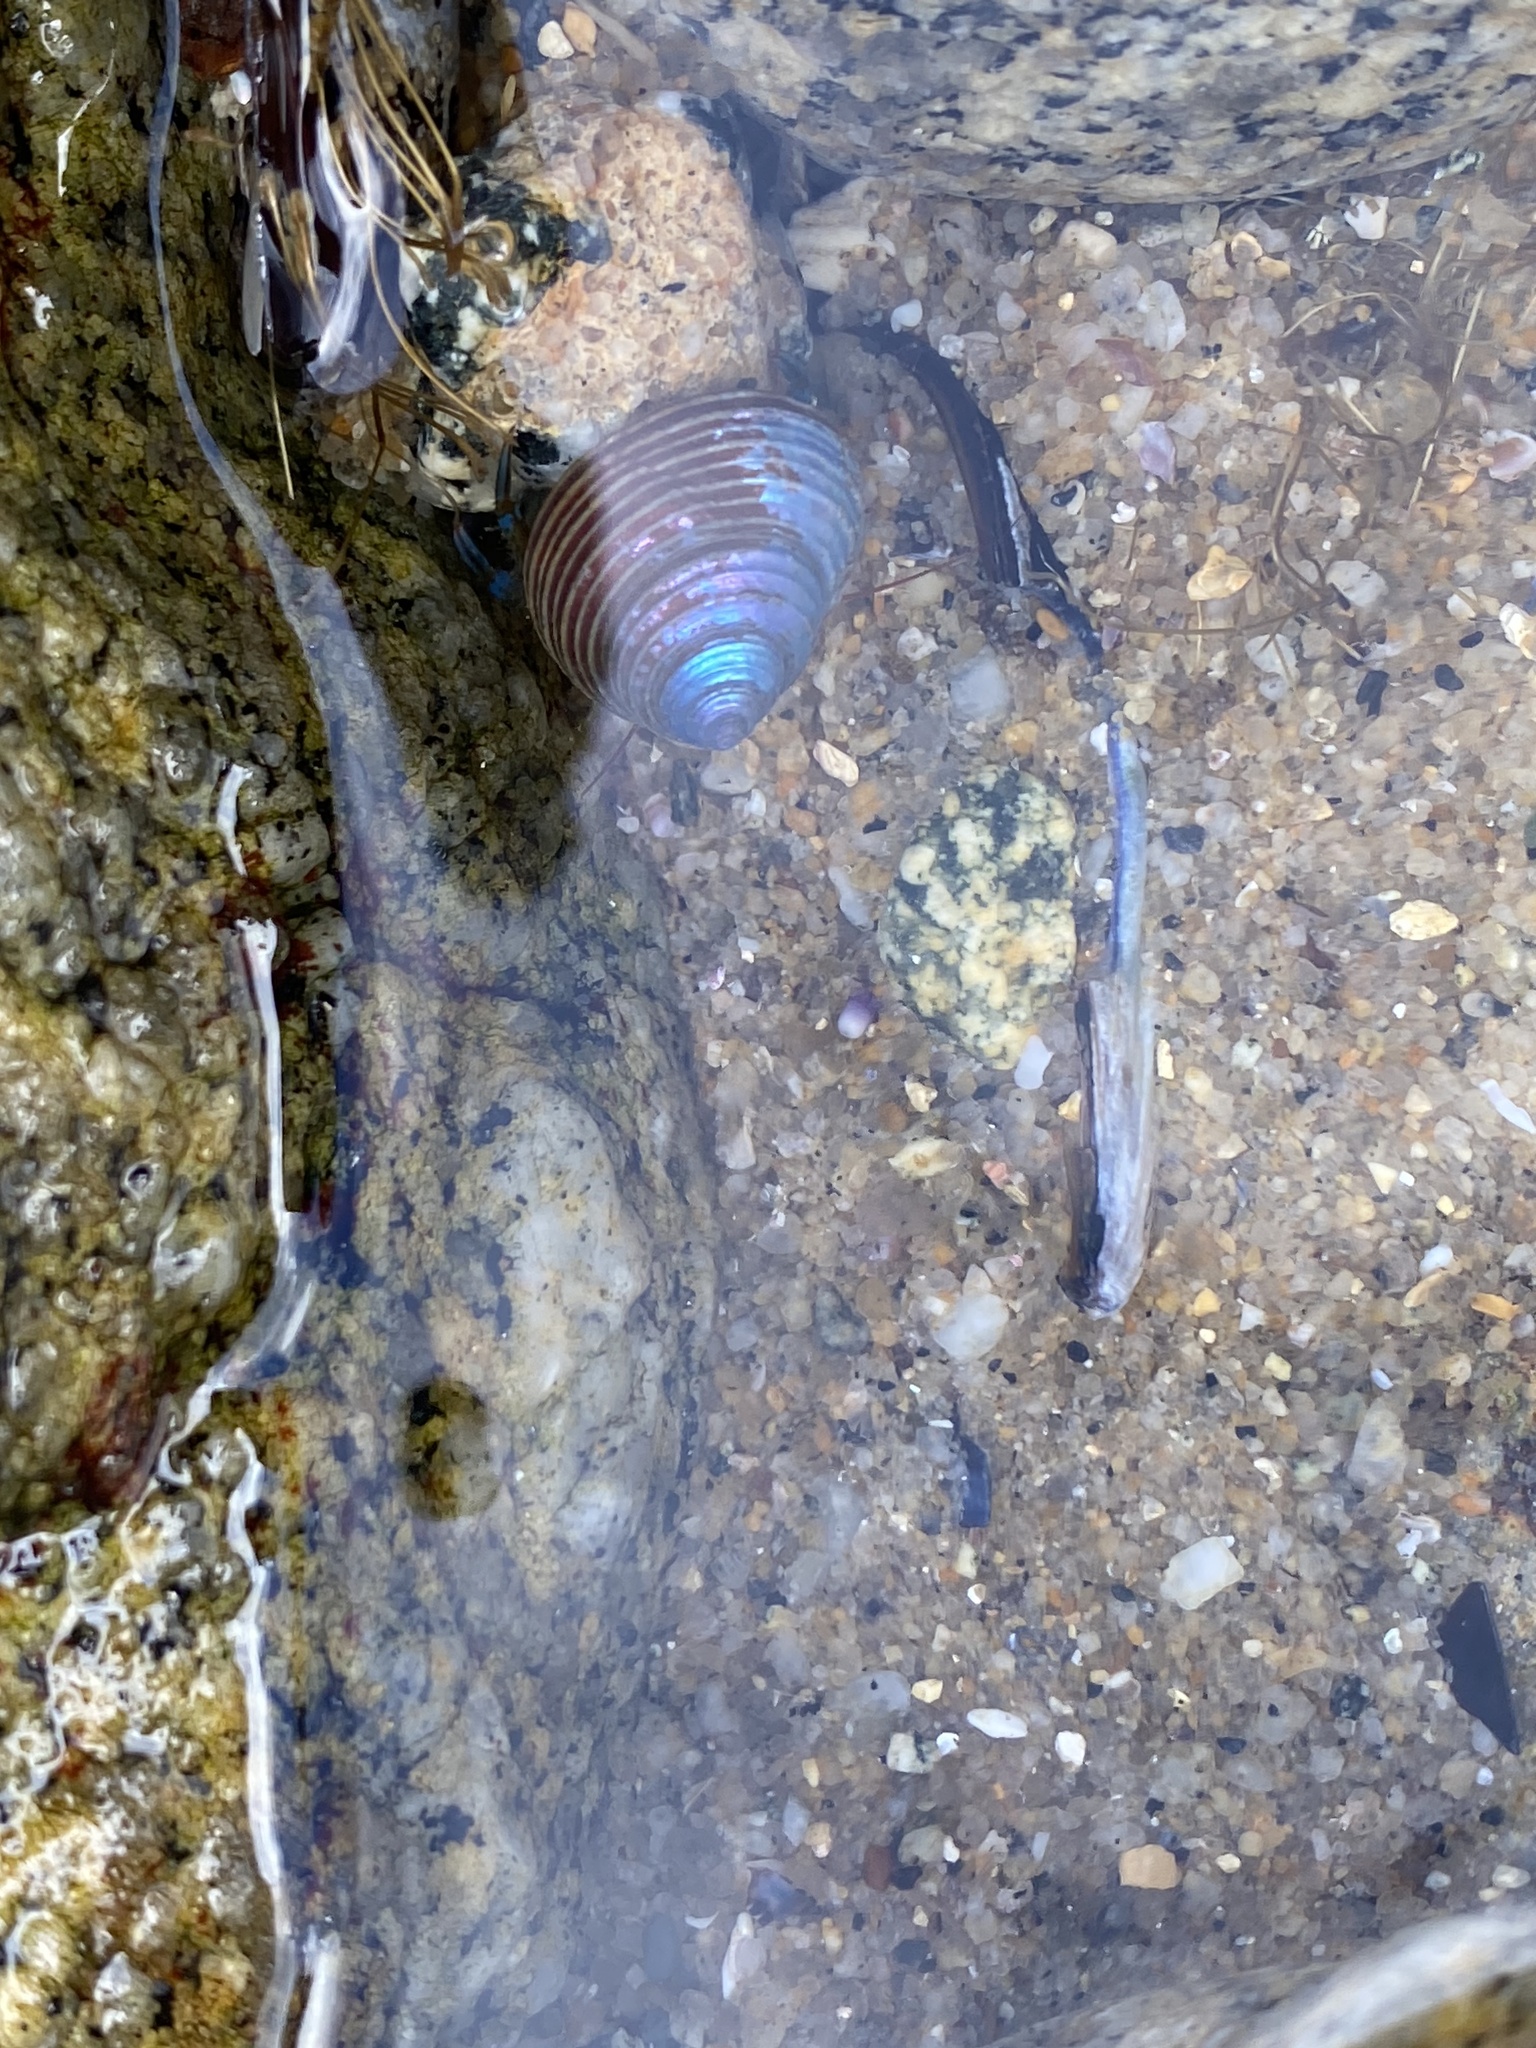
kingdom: Animalia
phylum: Mollusca
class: Gastropoda
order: Trochida
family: Calliostomatidae
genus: Calliostoma
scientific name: Calliostoma ligatum
